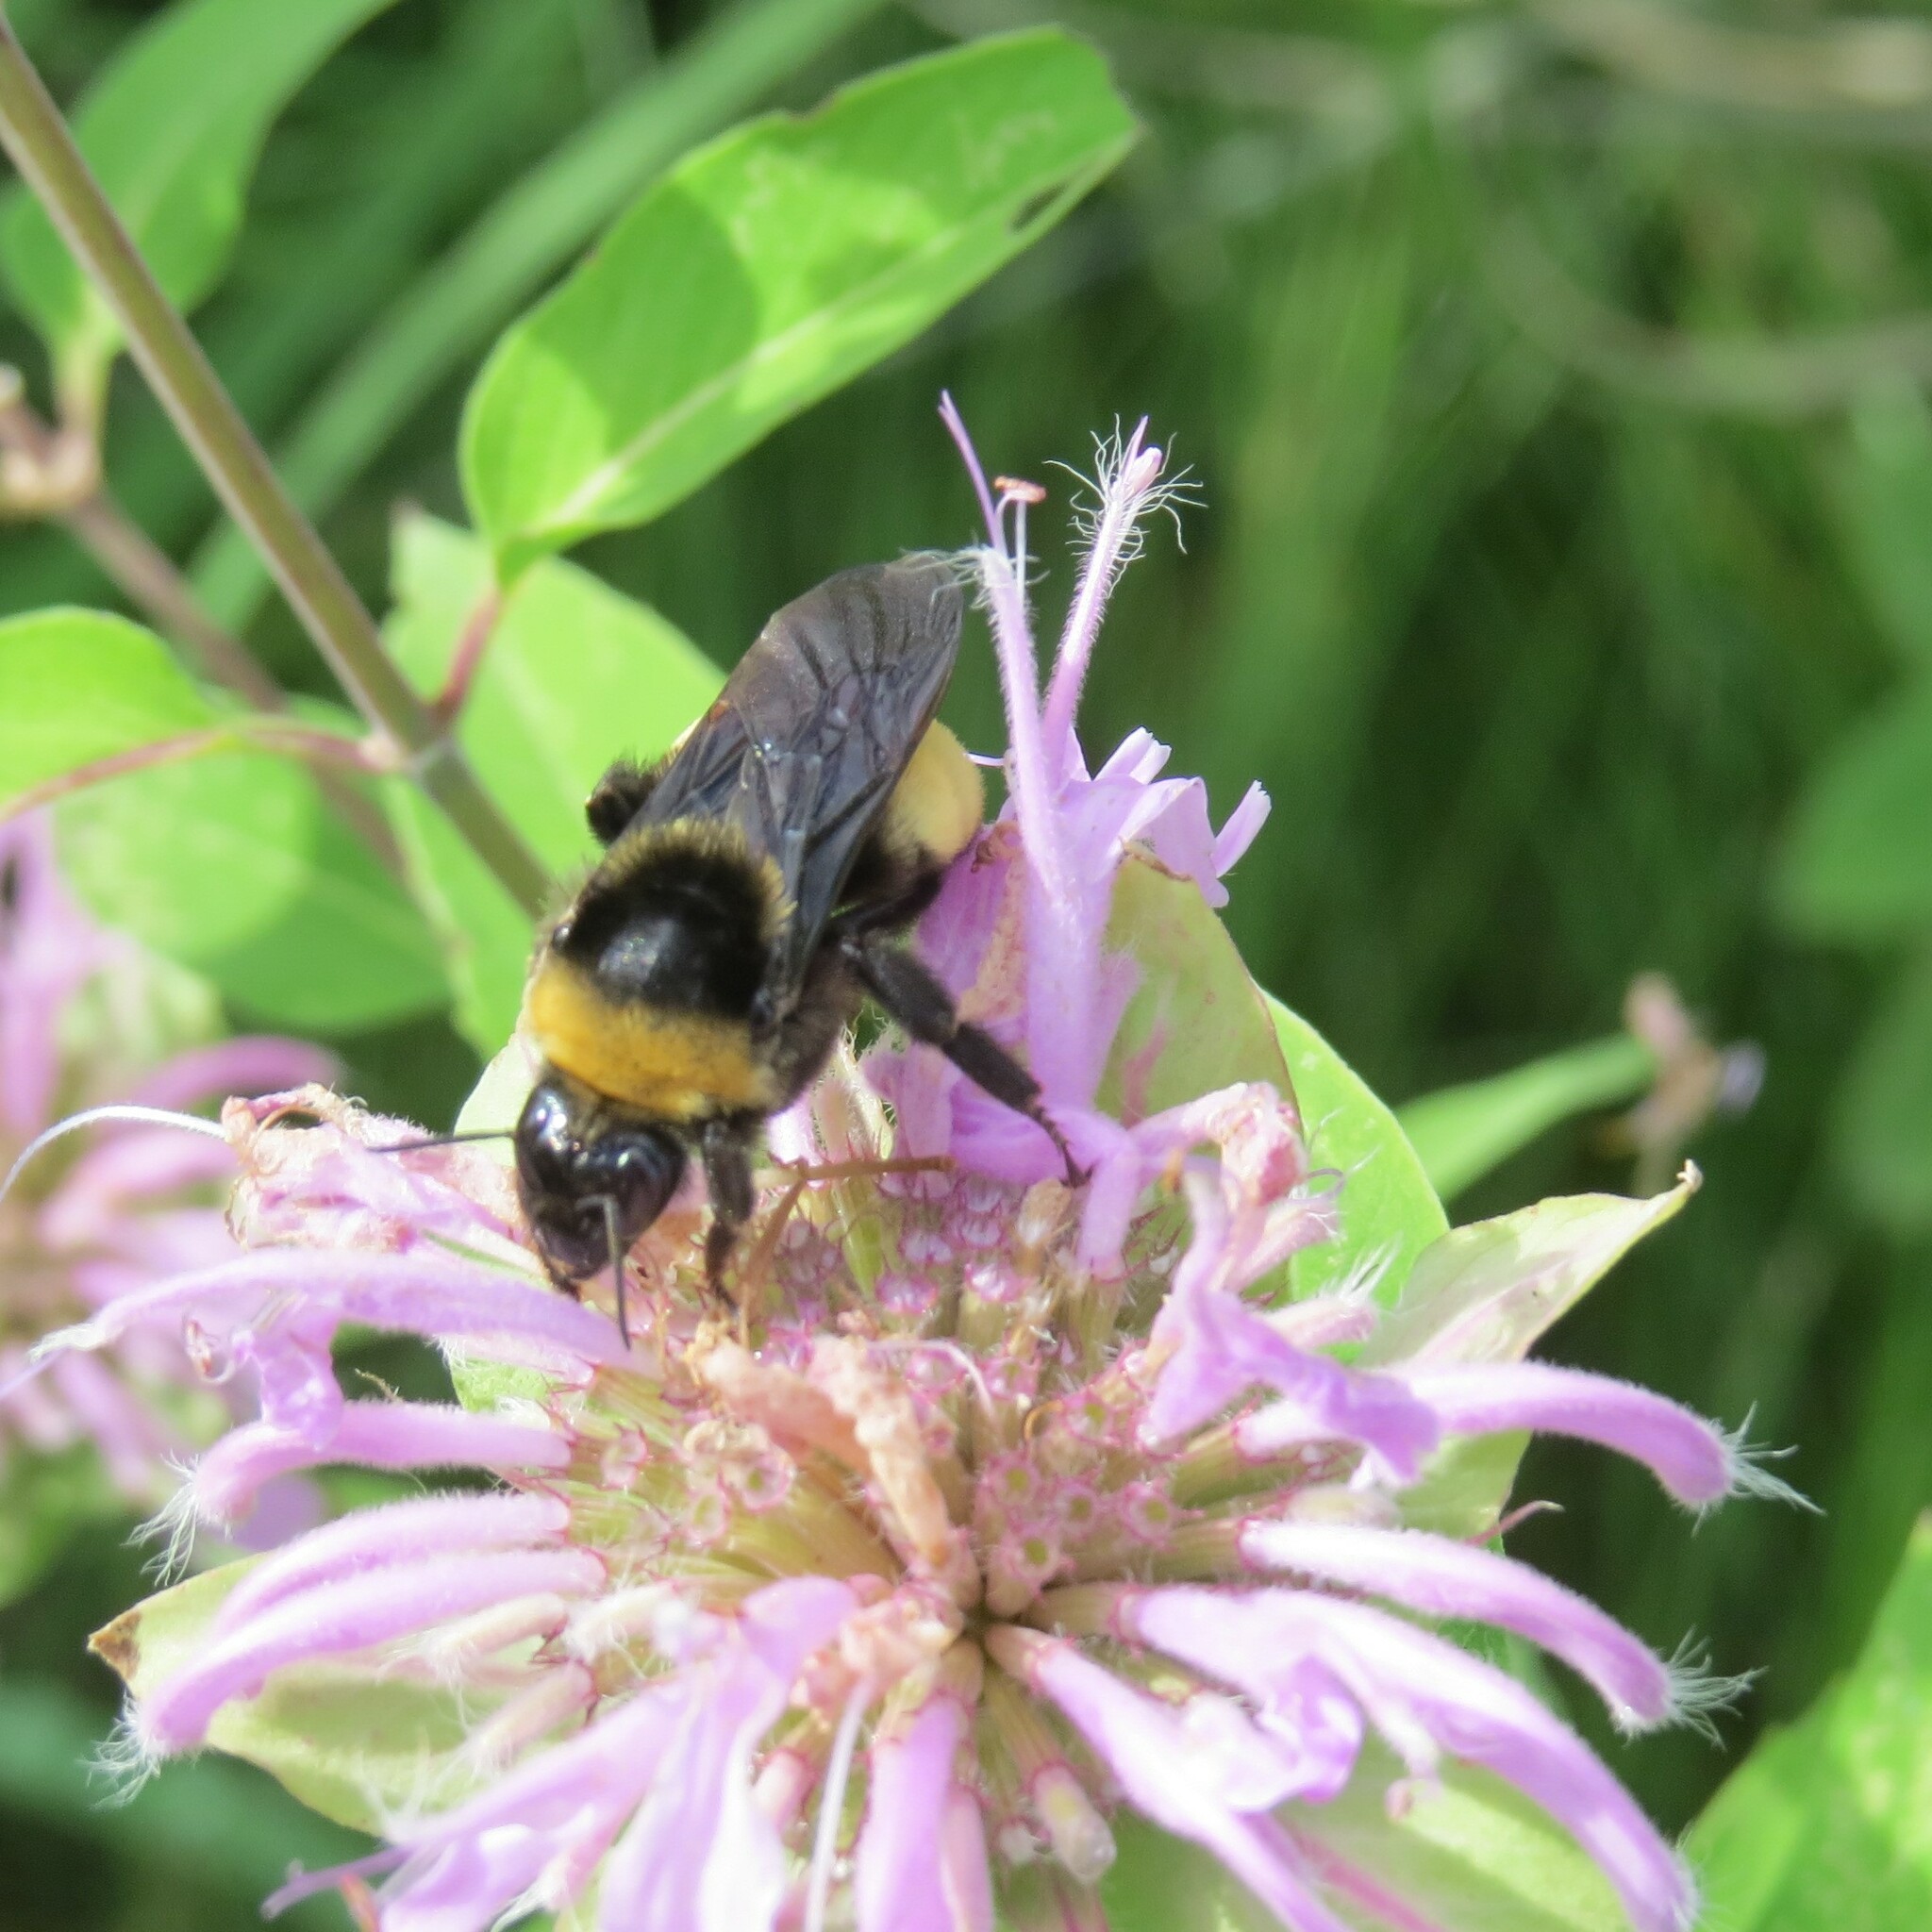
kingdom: Animalia
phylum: Arthropoda
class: Insecta
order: Hymenoptera
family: Apidae
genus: Bombus
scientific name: Bombus auricomus
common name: Black and gold bumble bee
